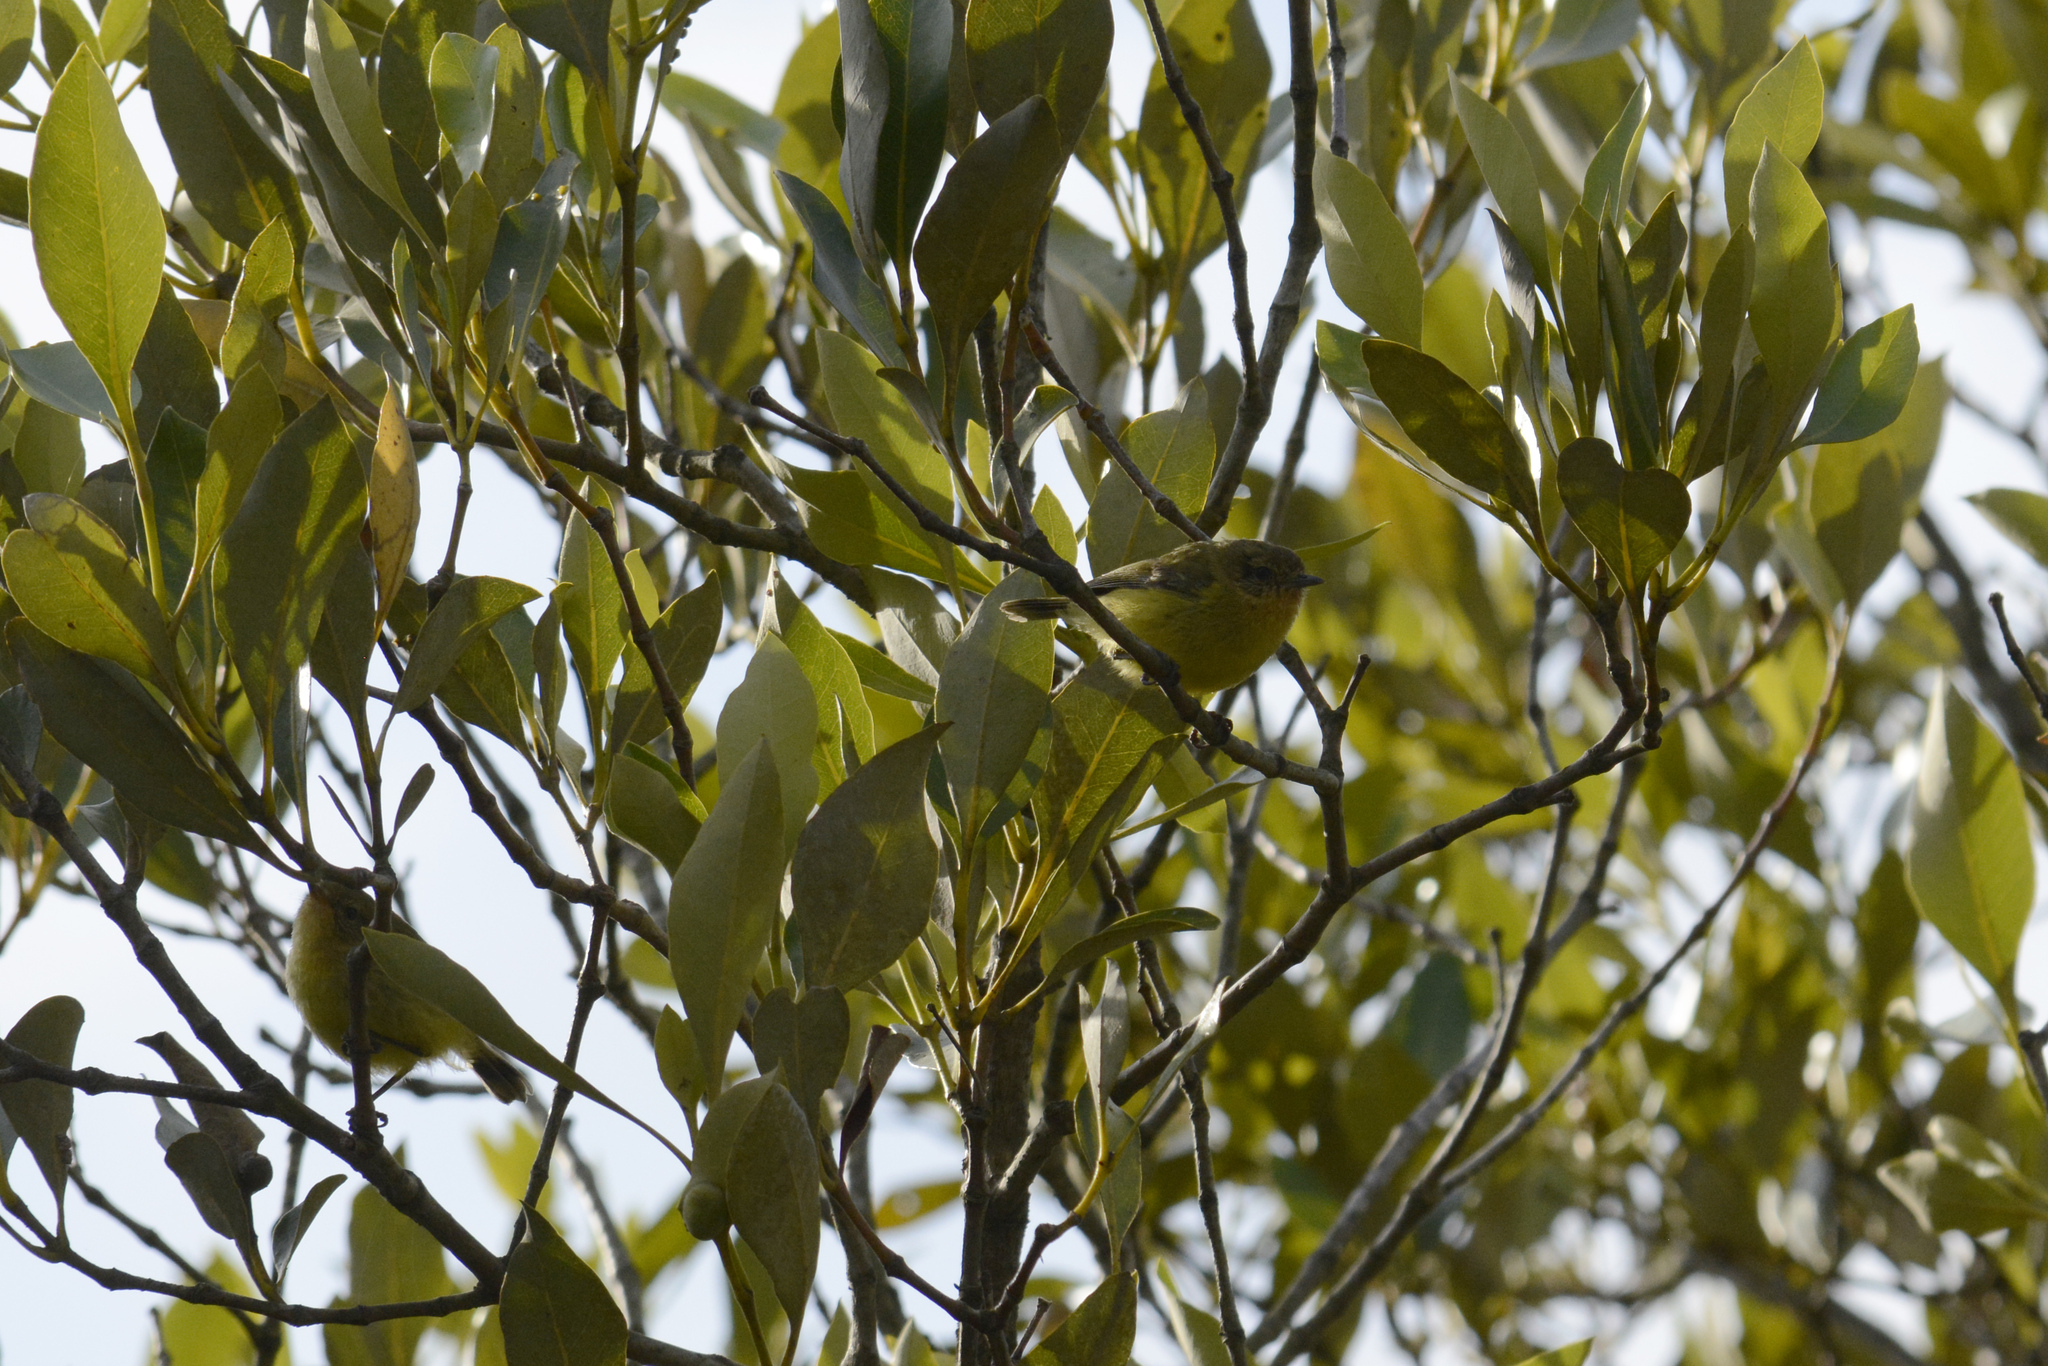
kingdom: Animalia
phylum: Chordata
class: Aves
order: Passeriformes
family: Acanthizidae
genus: Acanthiza
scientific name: Acanthiza nana
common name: Yellow thornbill
